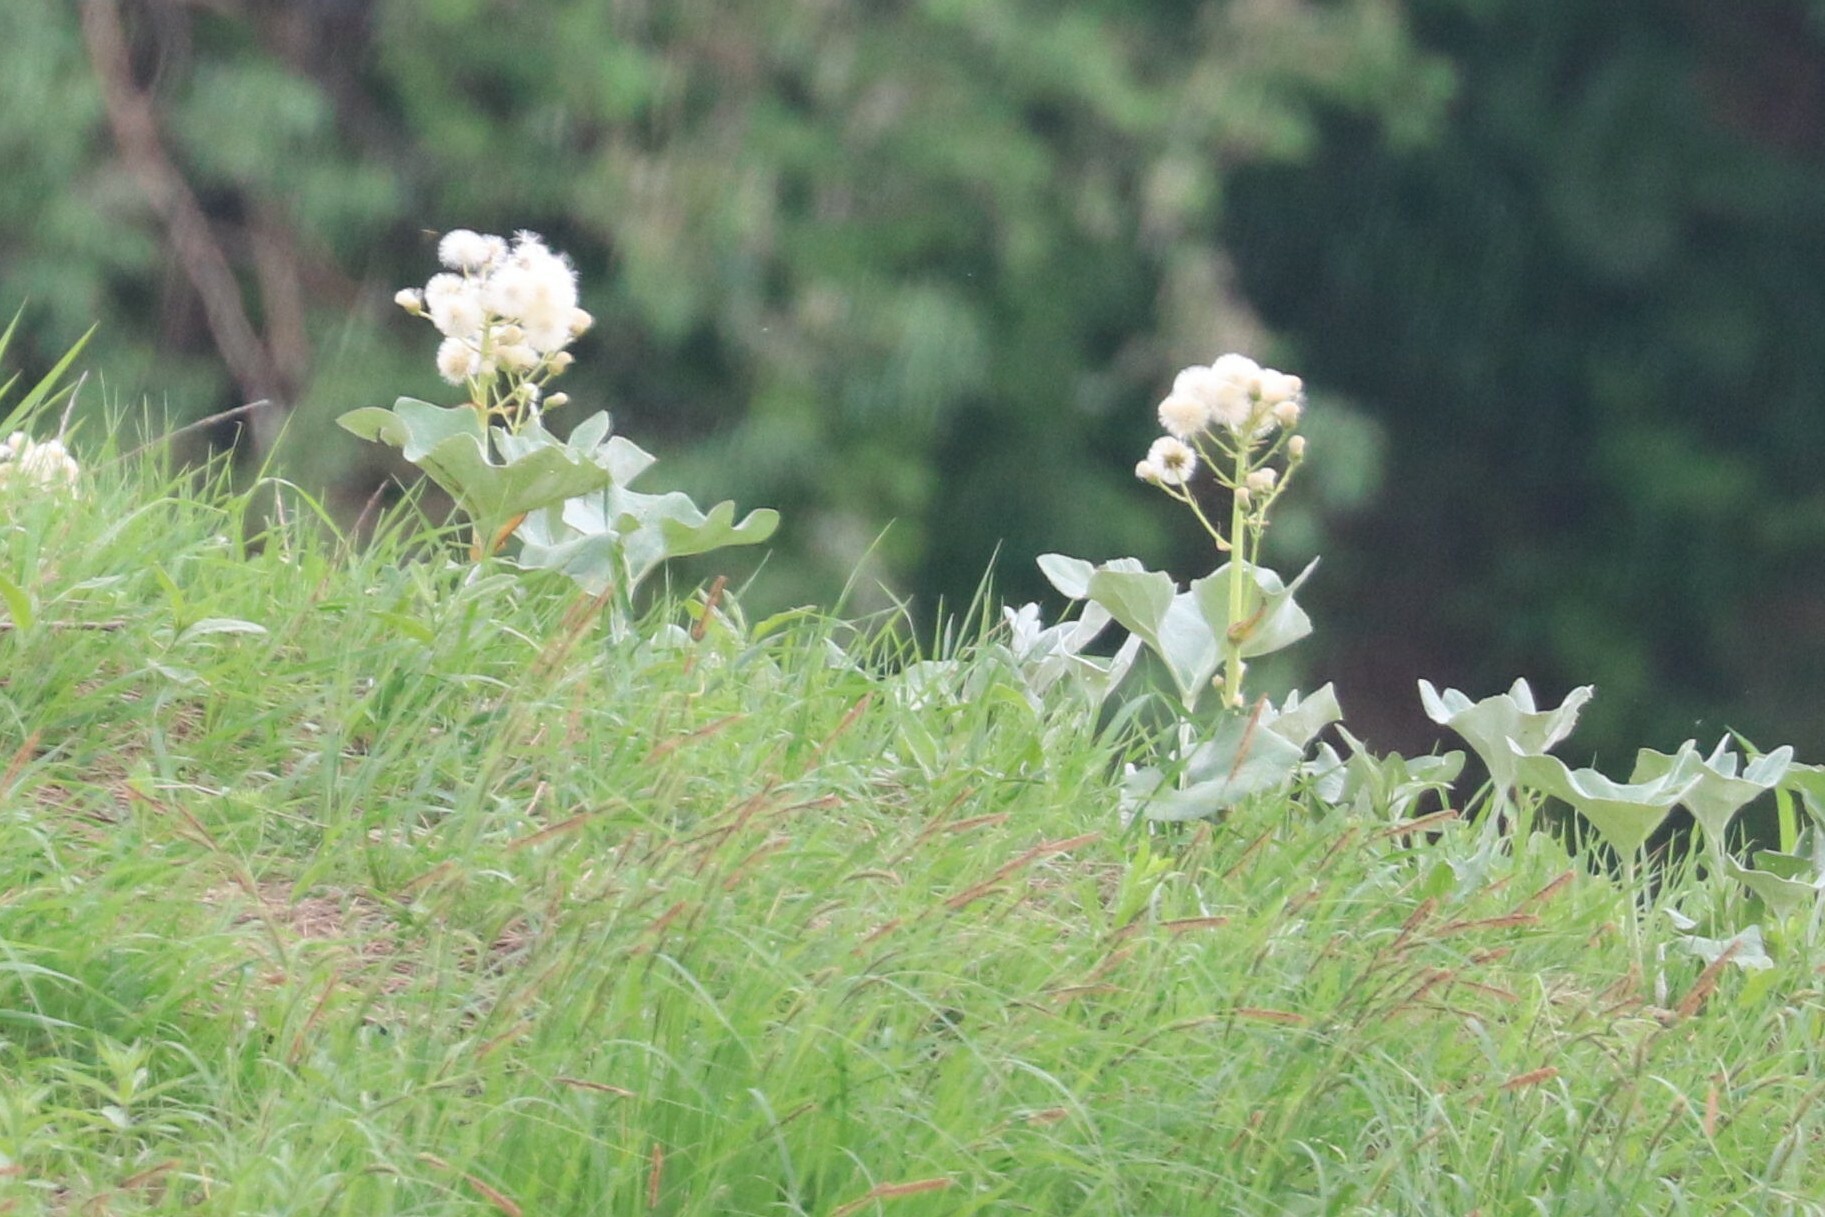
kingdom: Plantae
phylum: Tracheophyta
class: Magnoliopsida
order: Asterales
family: Asteraceae
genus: Petasites
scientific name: Petasites spurius
